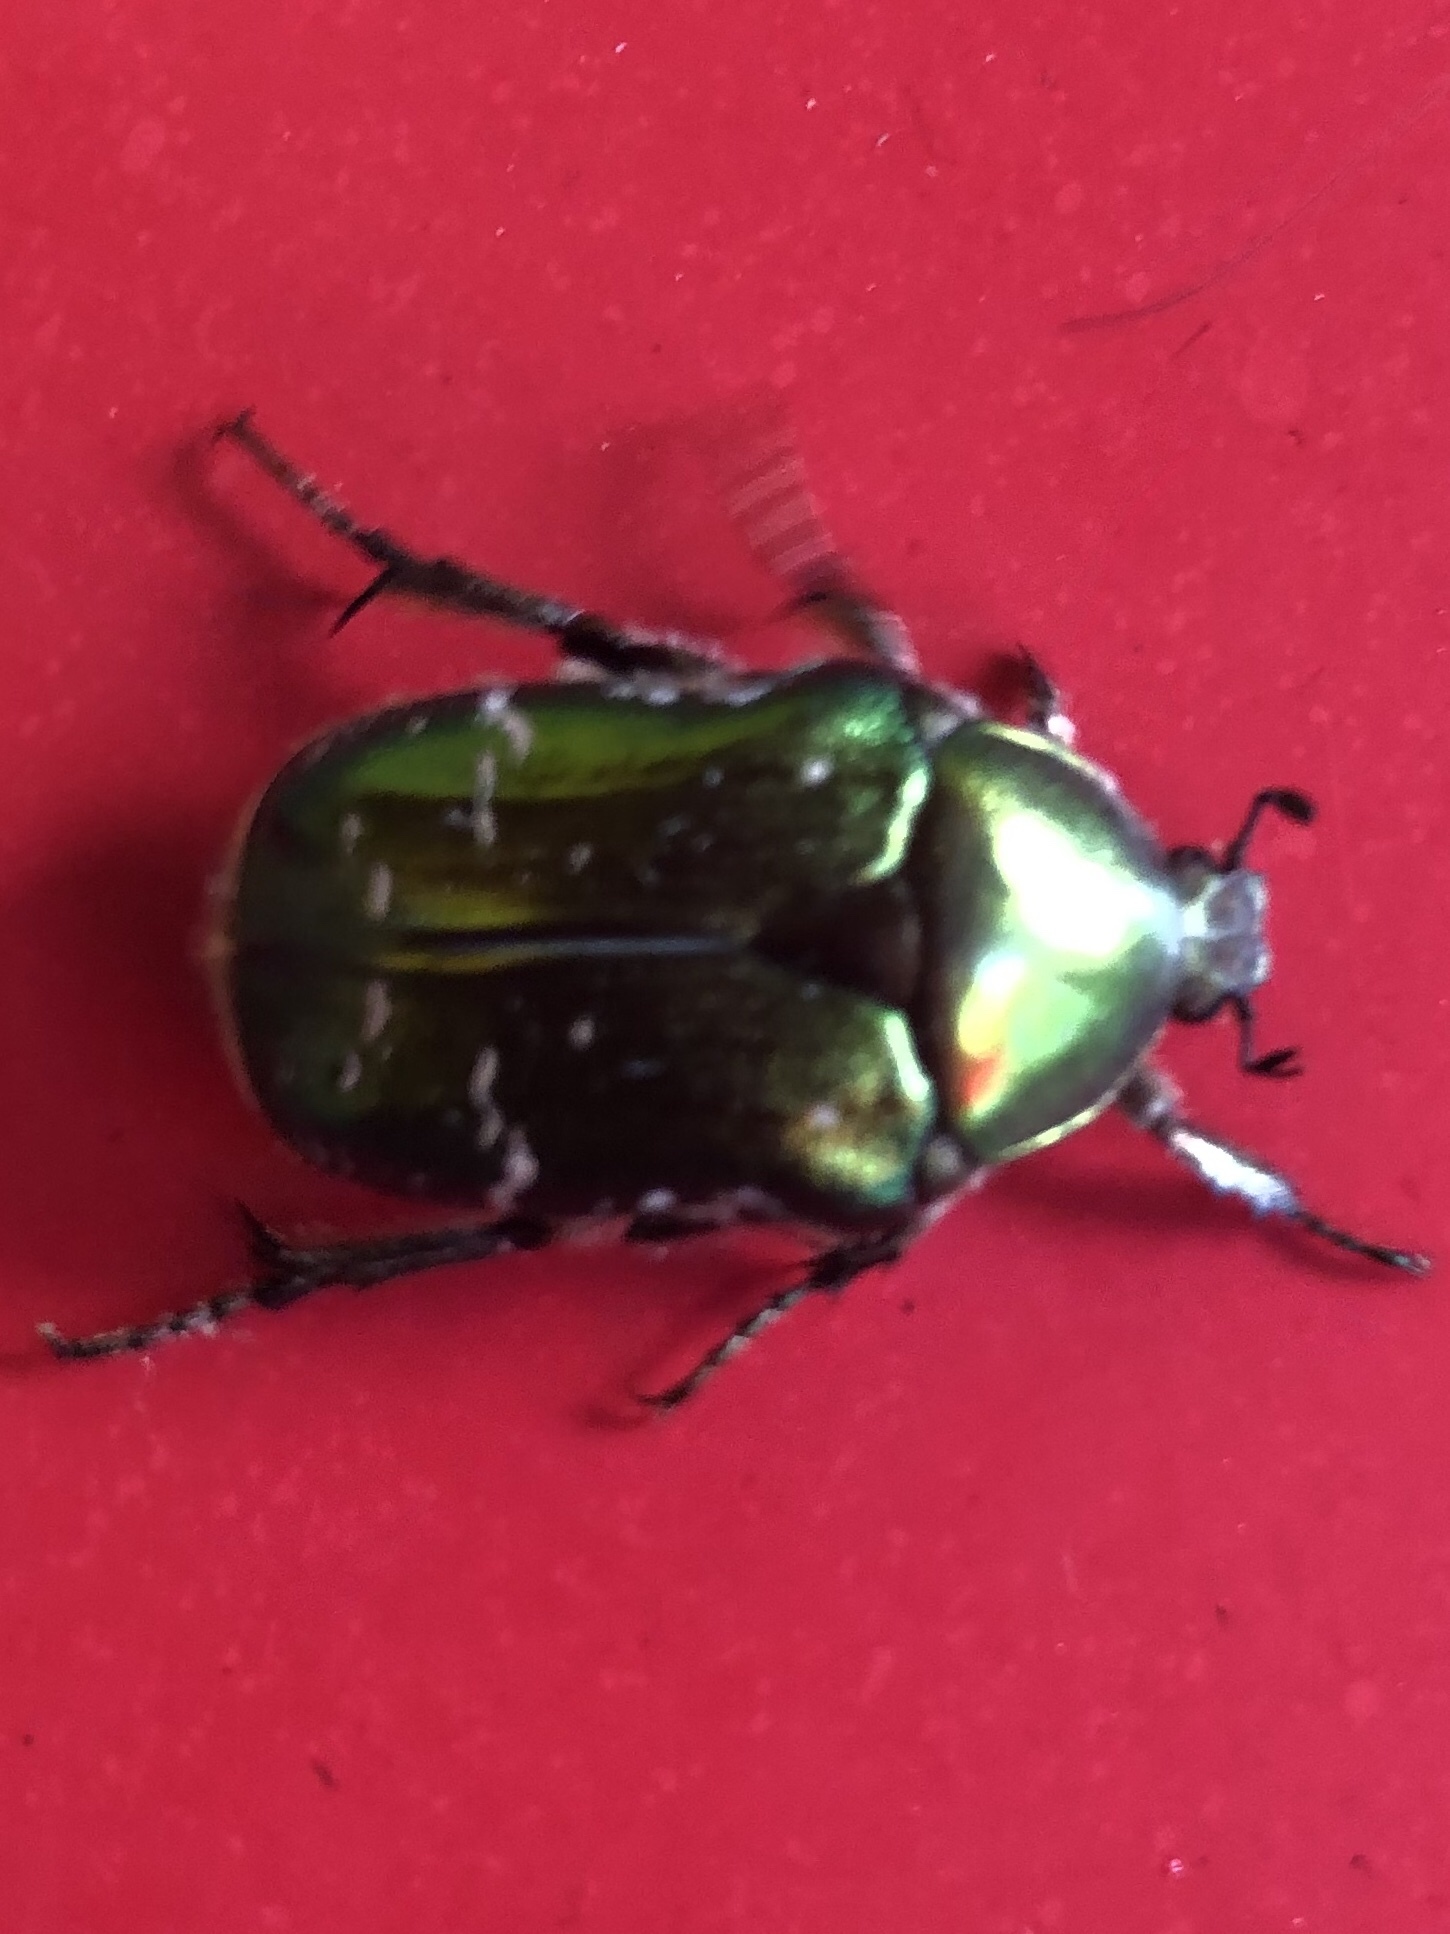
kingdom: Animalia
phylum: Arthropoda
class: Insecta
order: Coleoptera
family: Scarabaeidae
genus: Cetonia
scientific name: Cetonia aurata
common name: Rose chafer
